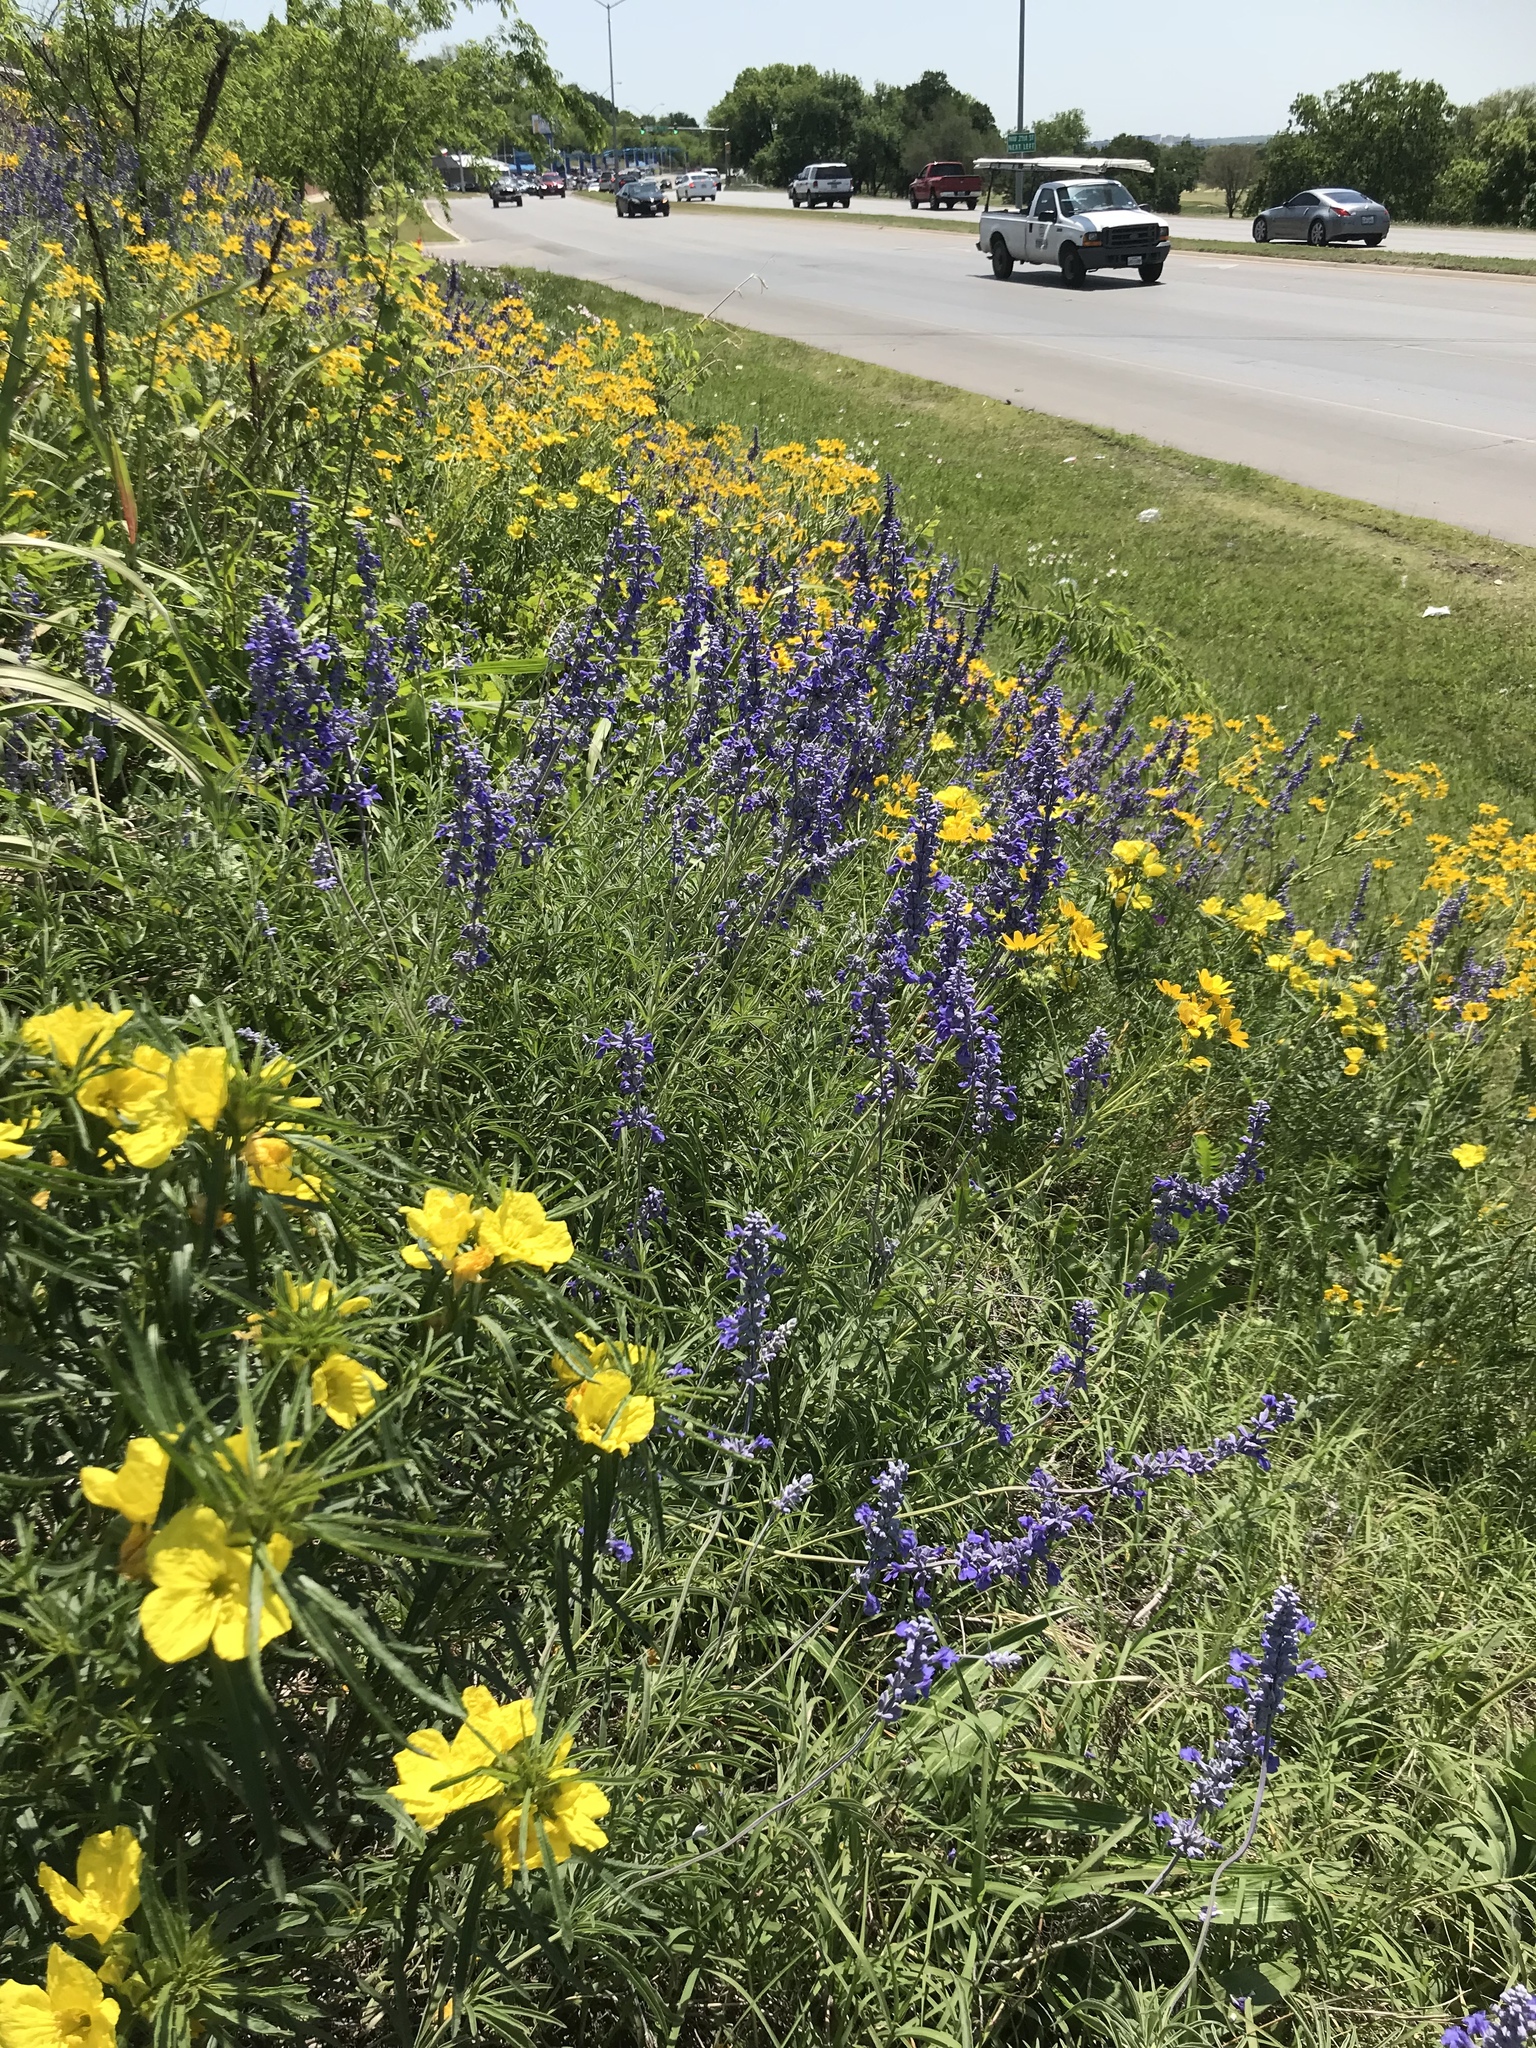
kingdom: Plantae
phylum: Tracheophyta
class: Magnoliopsida
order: Lamiales
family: Lamiaceae
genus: Salvia
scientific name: Salvia farinacea
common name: Mealy sage
